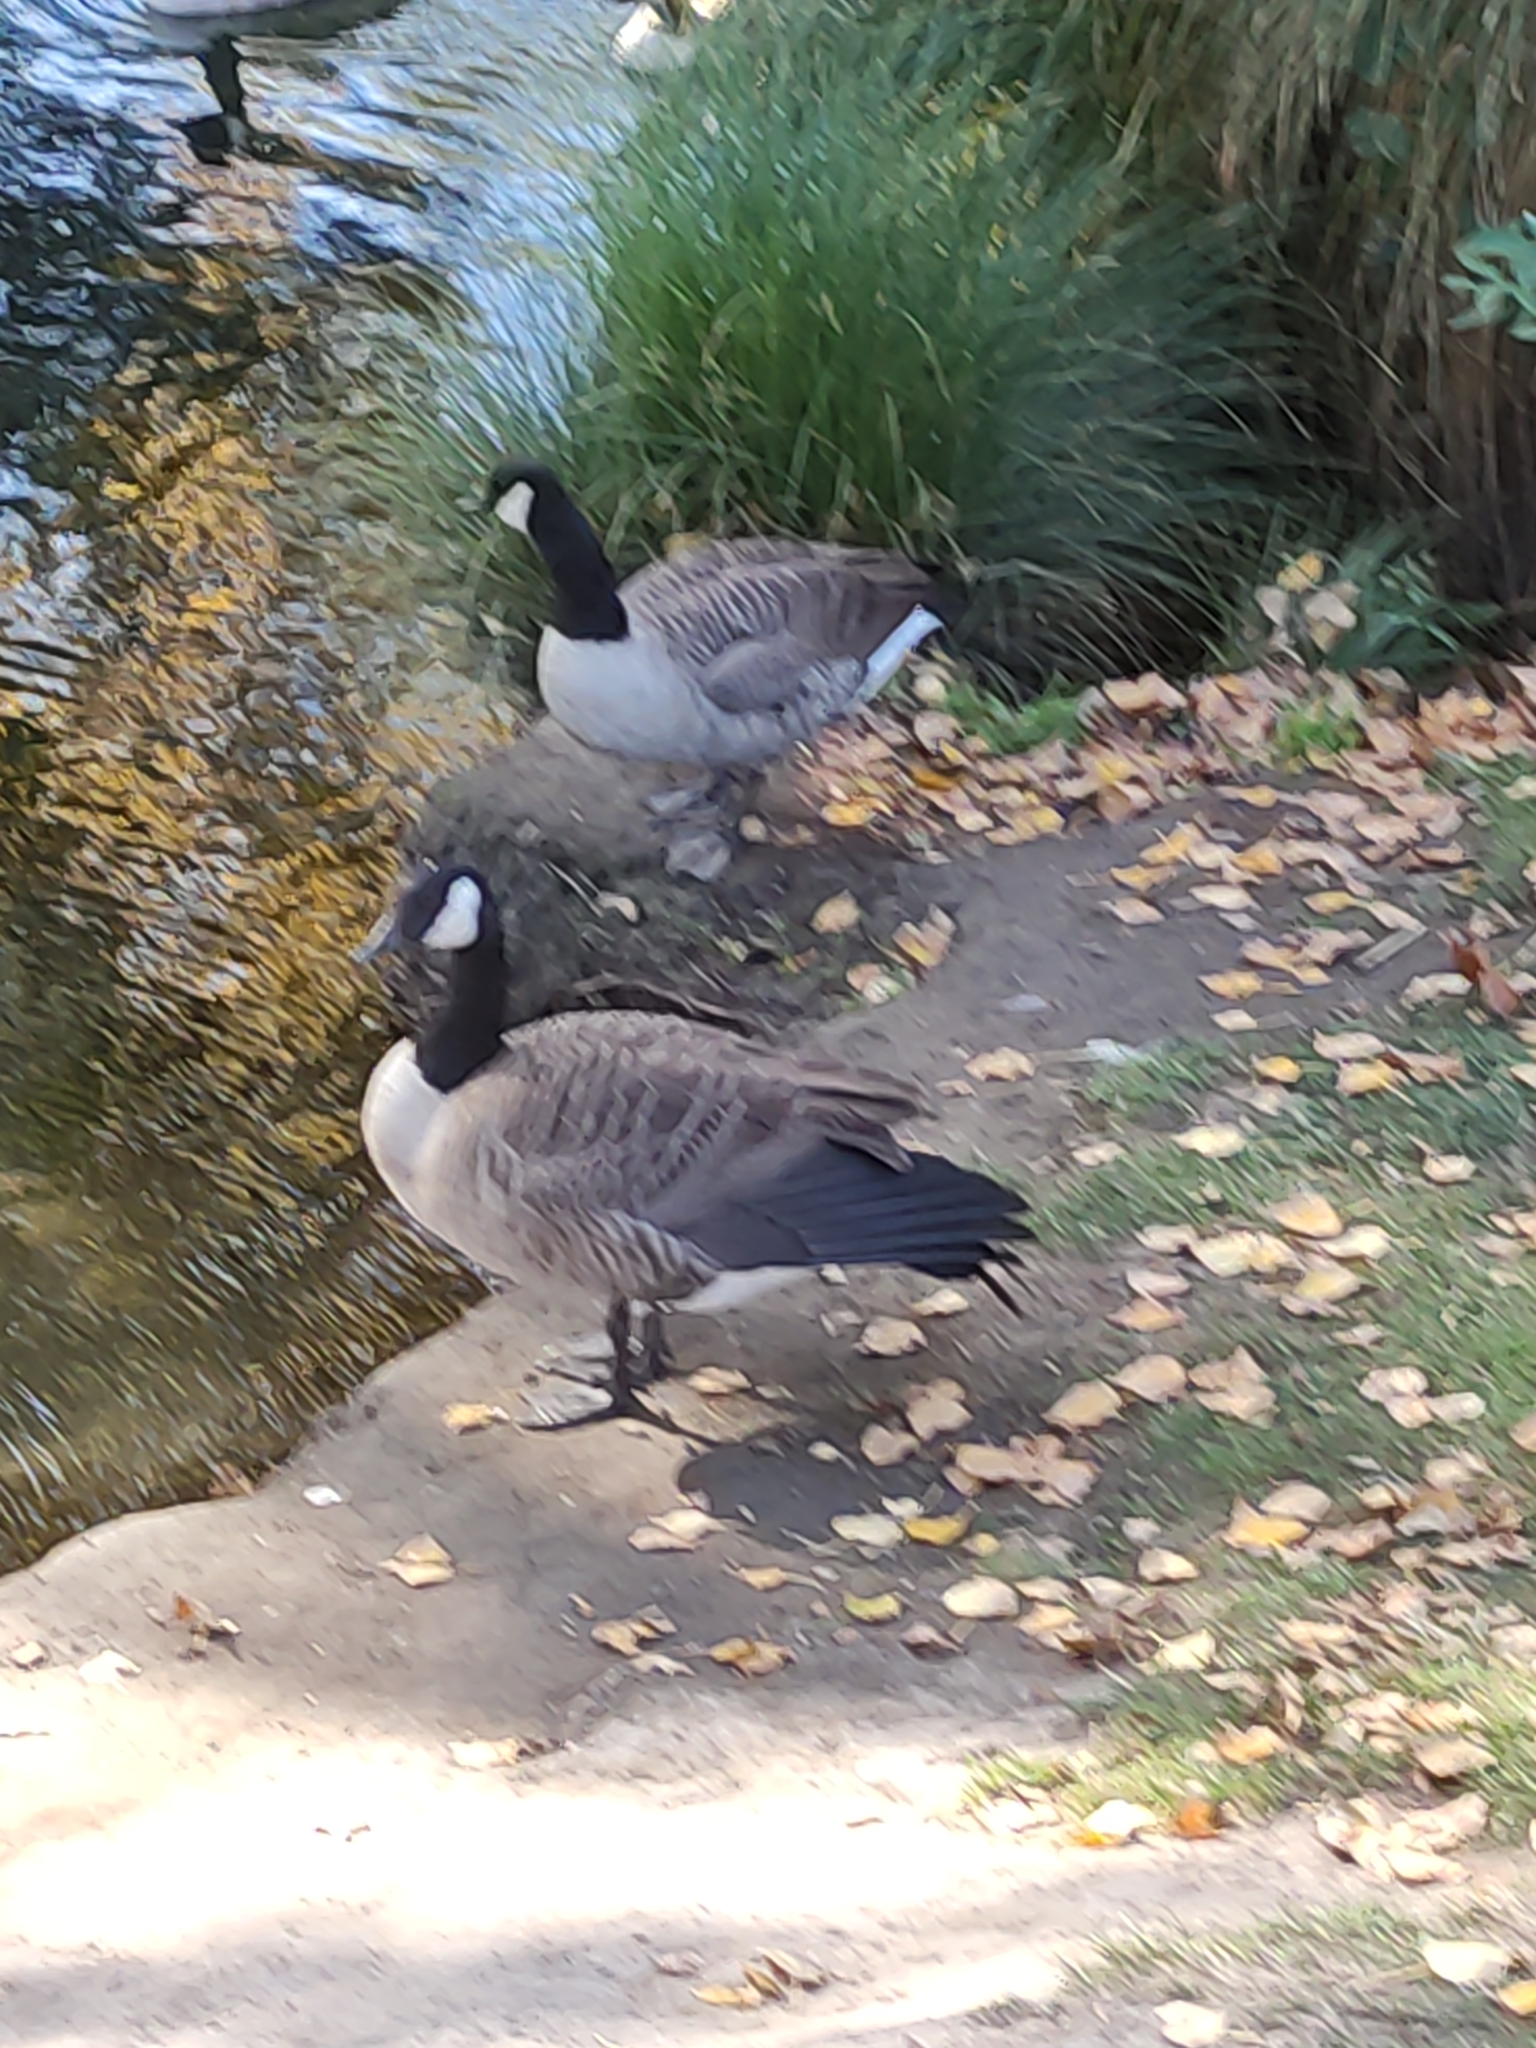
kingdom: Animalia
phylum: Chordata
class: Aves
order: Anseriformes
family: Anatidae
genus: Branta
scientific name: Branta canadensis
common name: Canada goose
